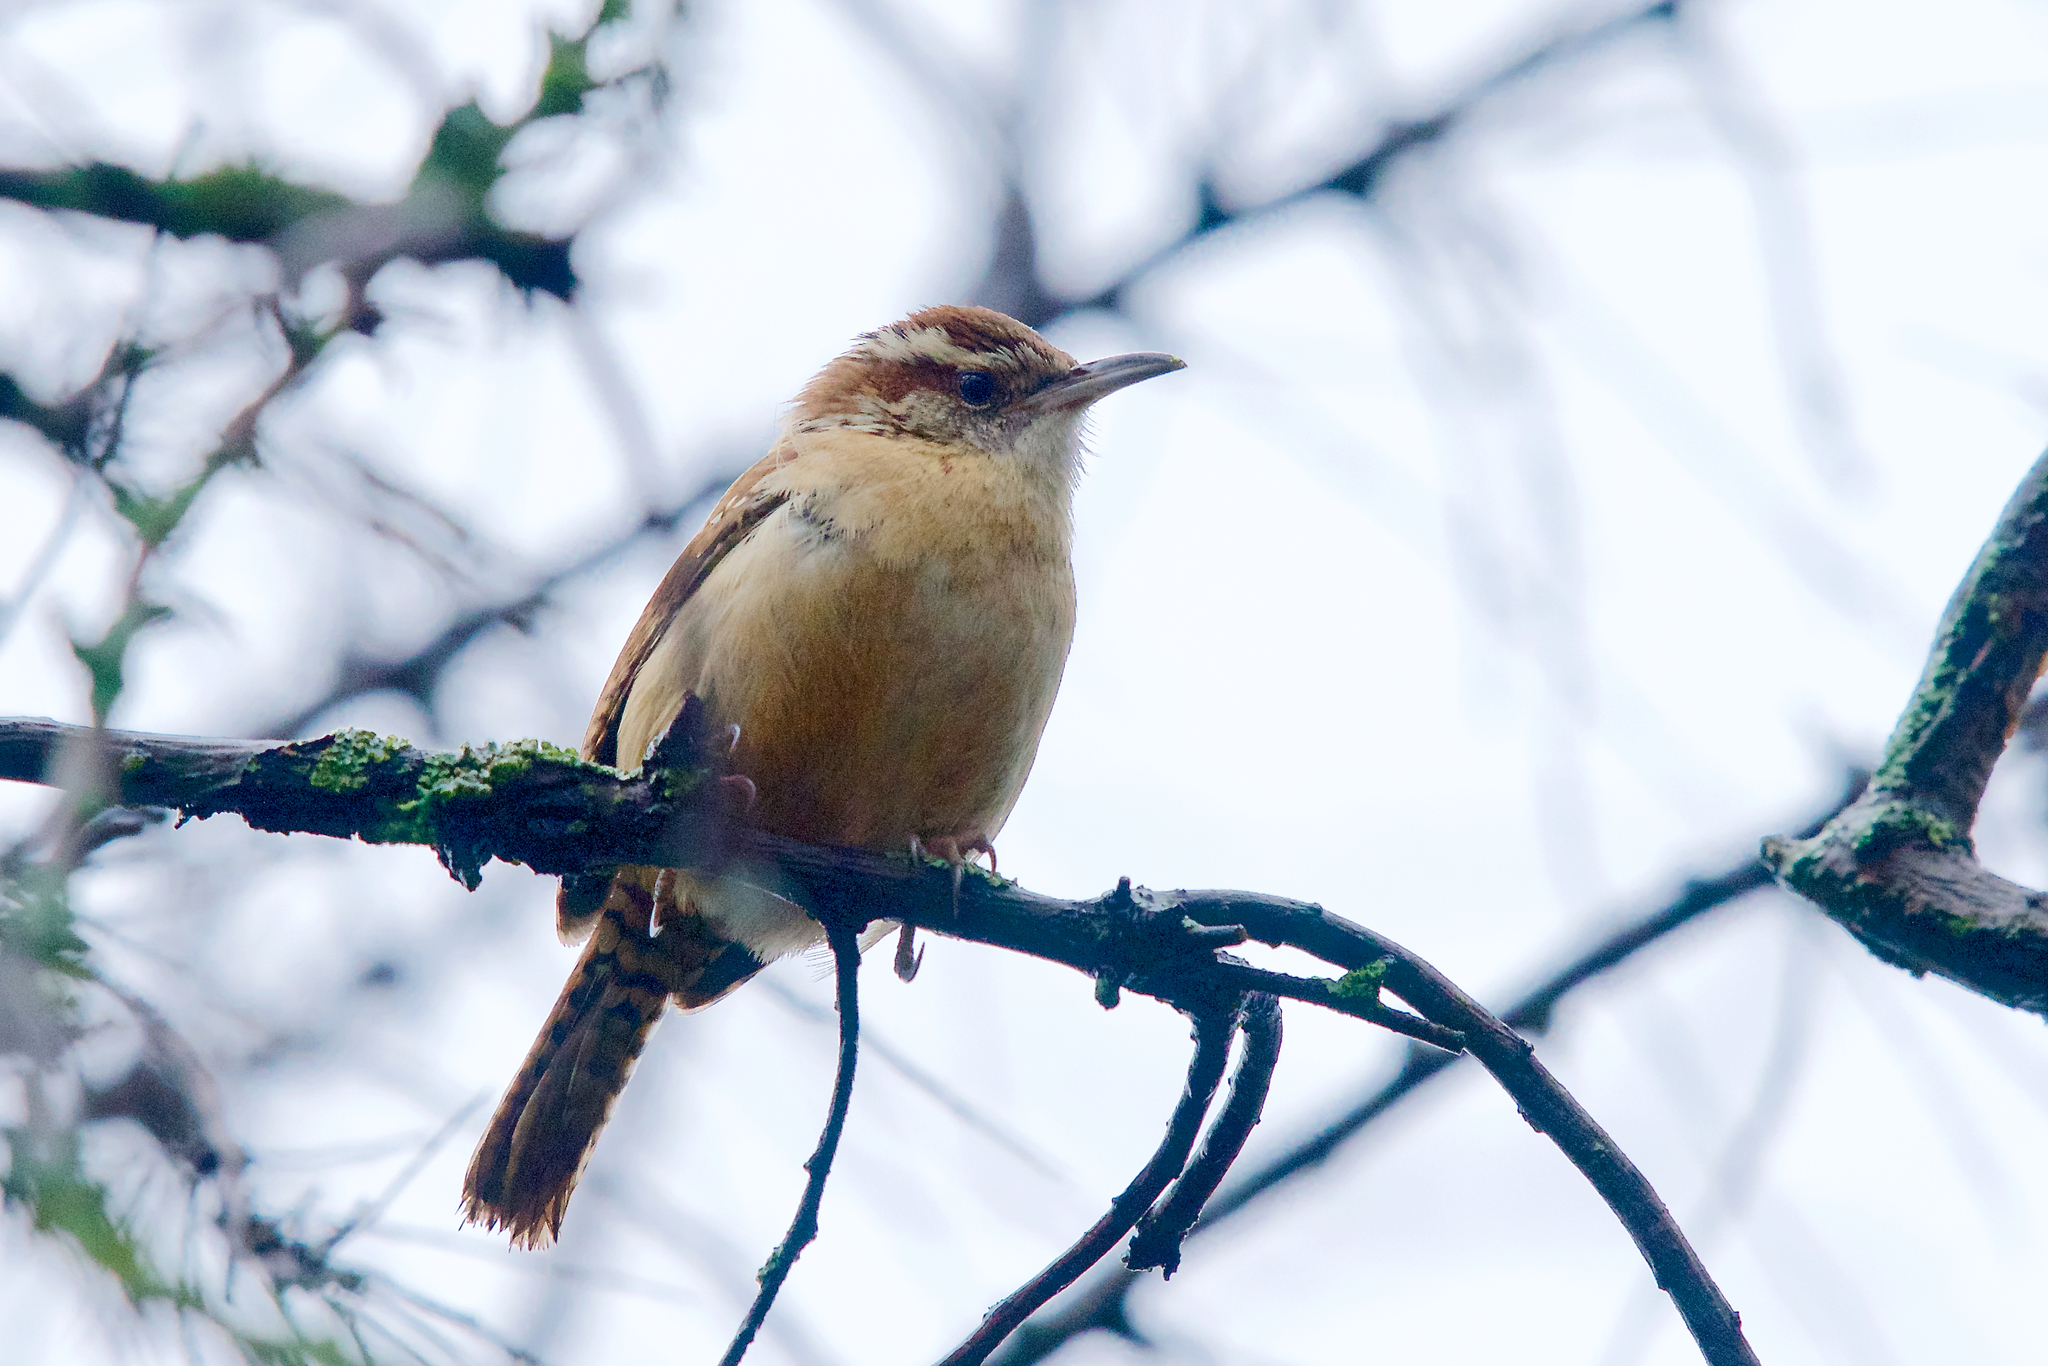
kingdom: Animalia
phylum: Chordata
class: Aves
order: Passeriformes
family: Troglodytidae
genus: Thryothorus
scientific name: Thryothorus ludovicianus
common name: Carolina wren
